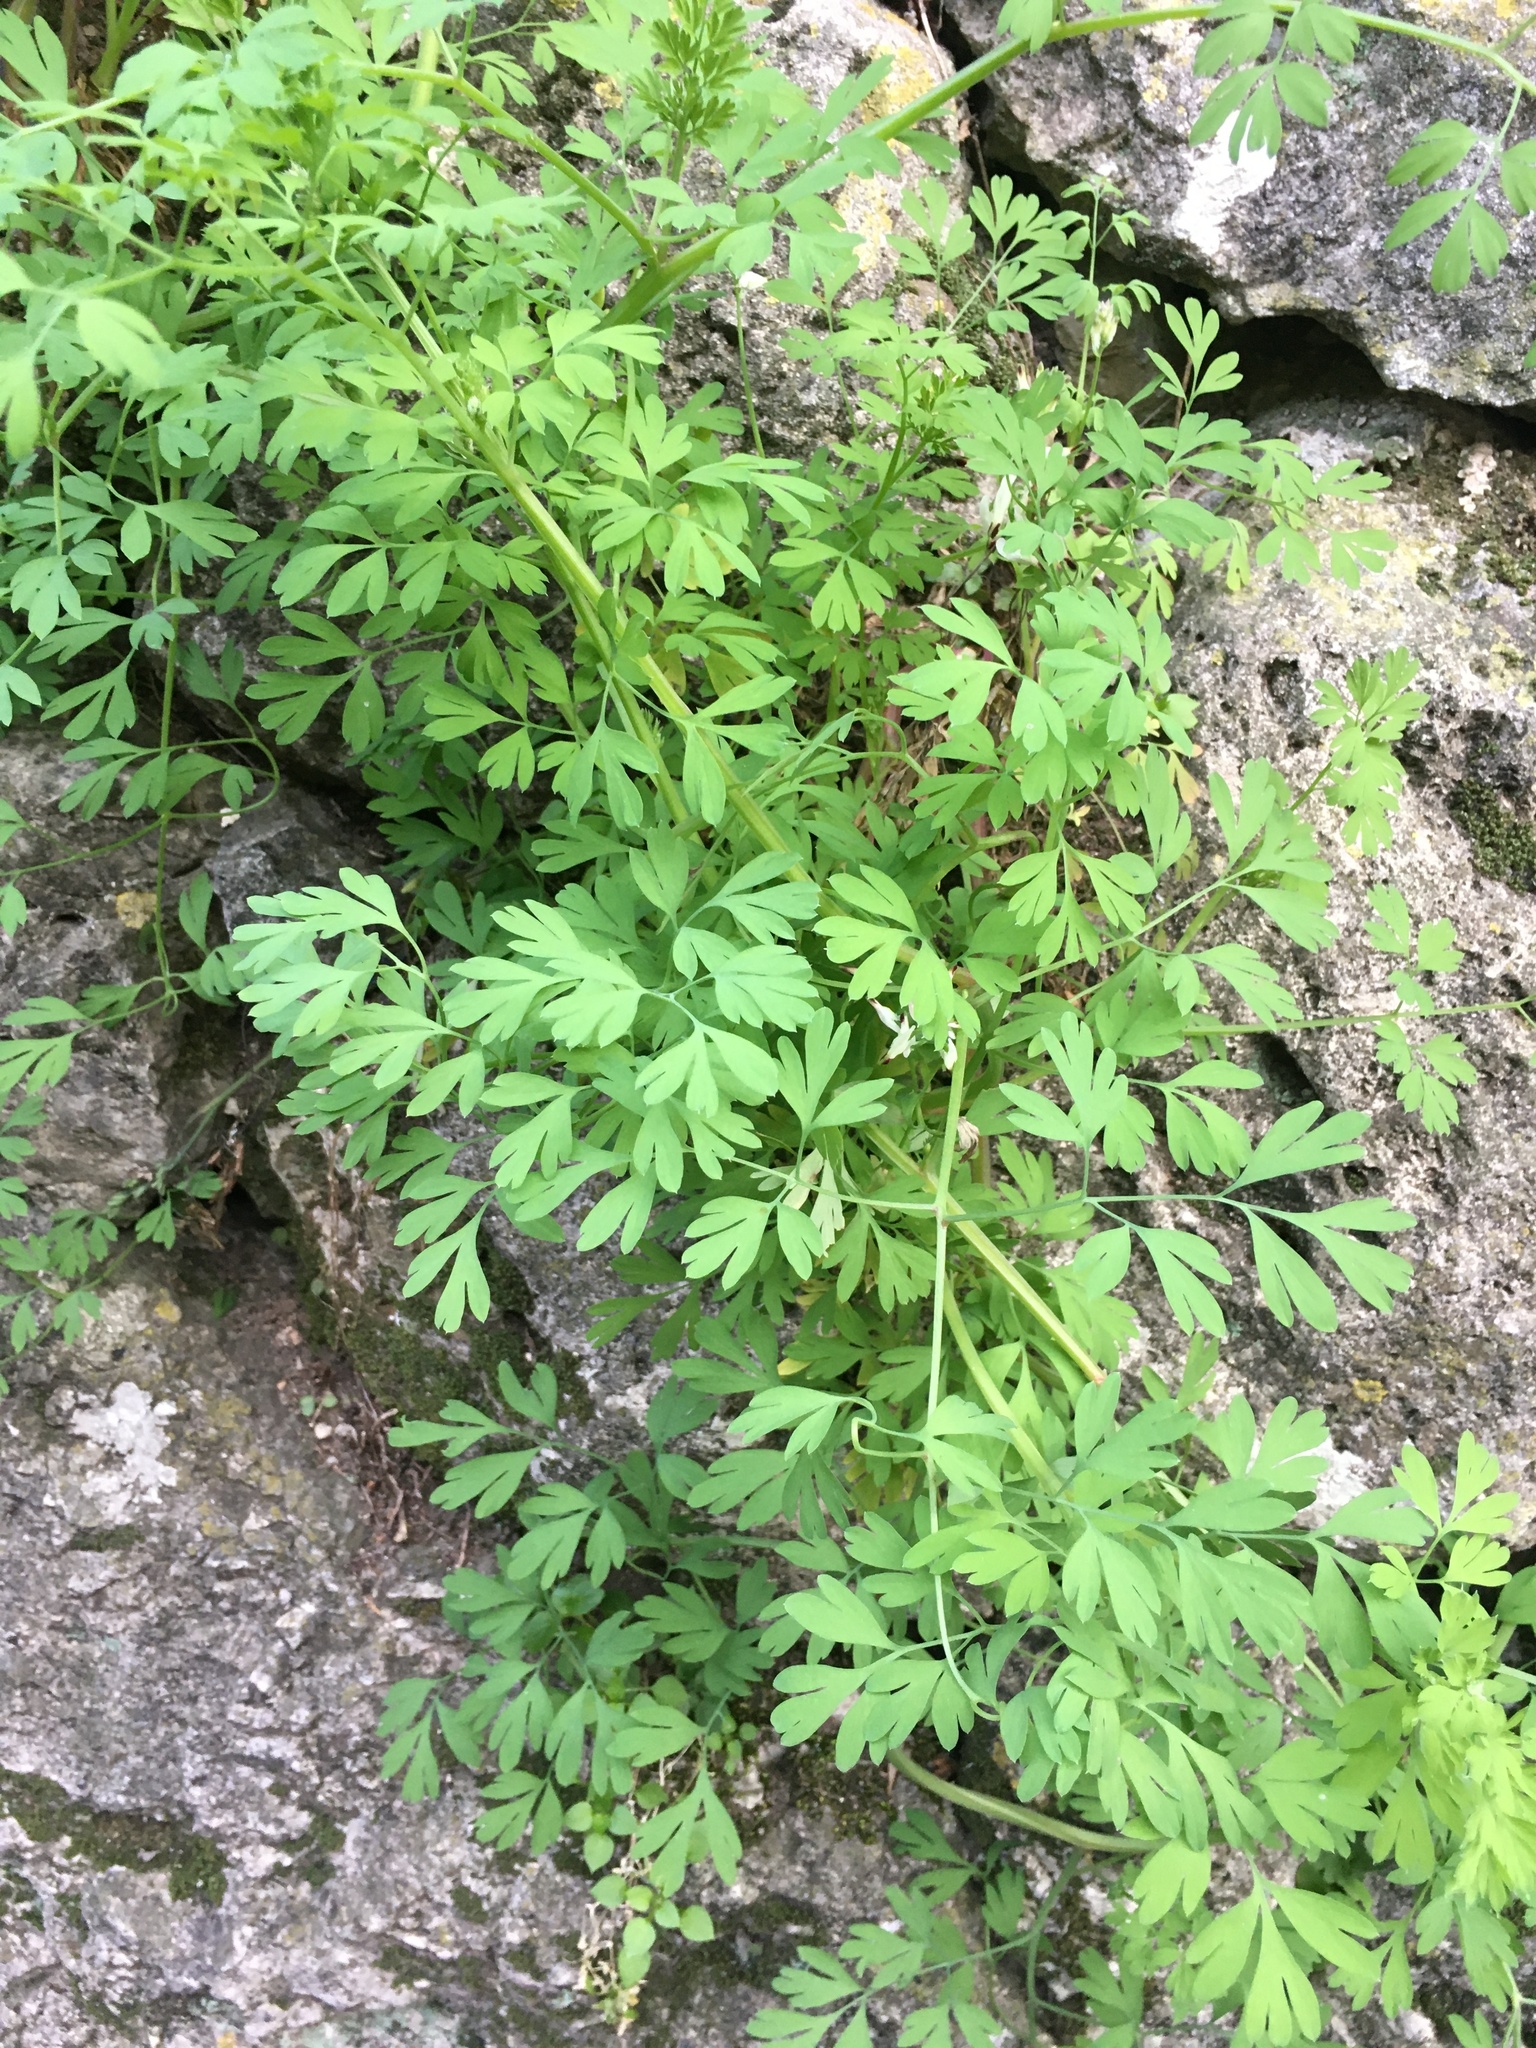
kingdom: Plantae
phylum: Tracheophyta
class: Magnoliopsida
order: Ranunculales
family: Papaveraceae
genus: Fumaria
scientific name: Fumaria capreolata
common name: White ramping-fumitory
